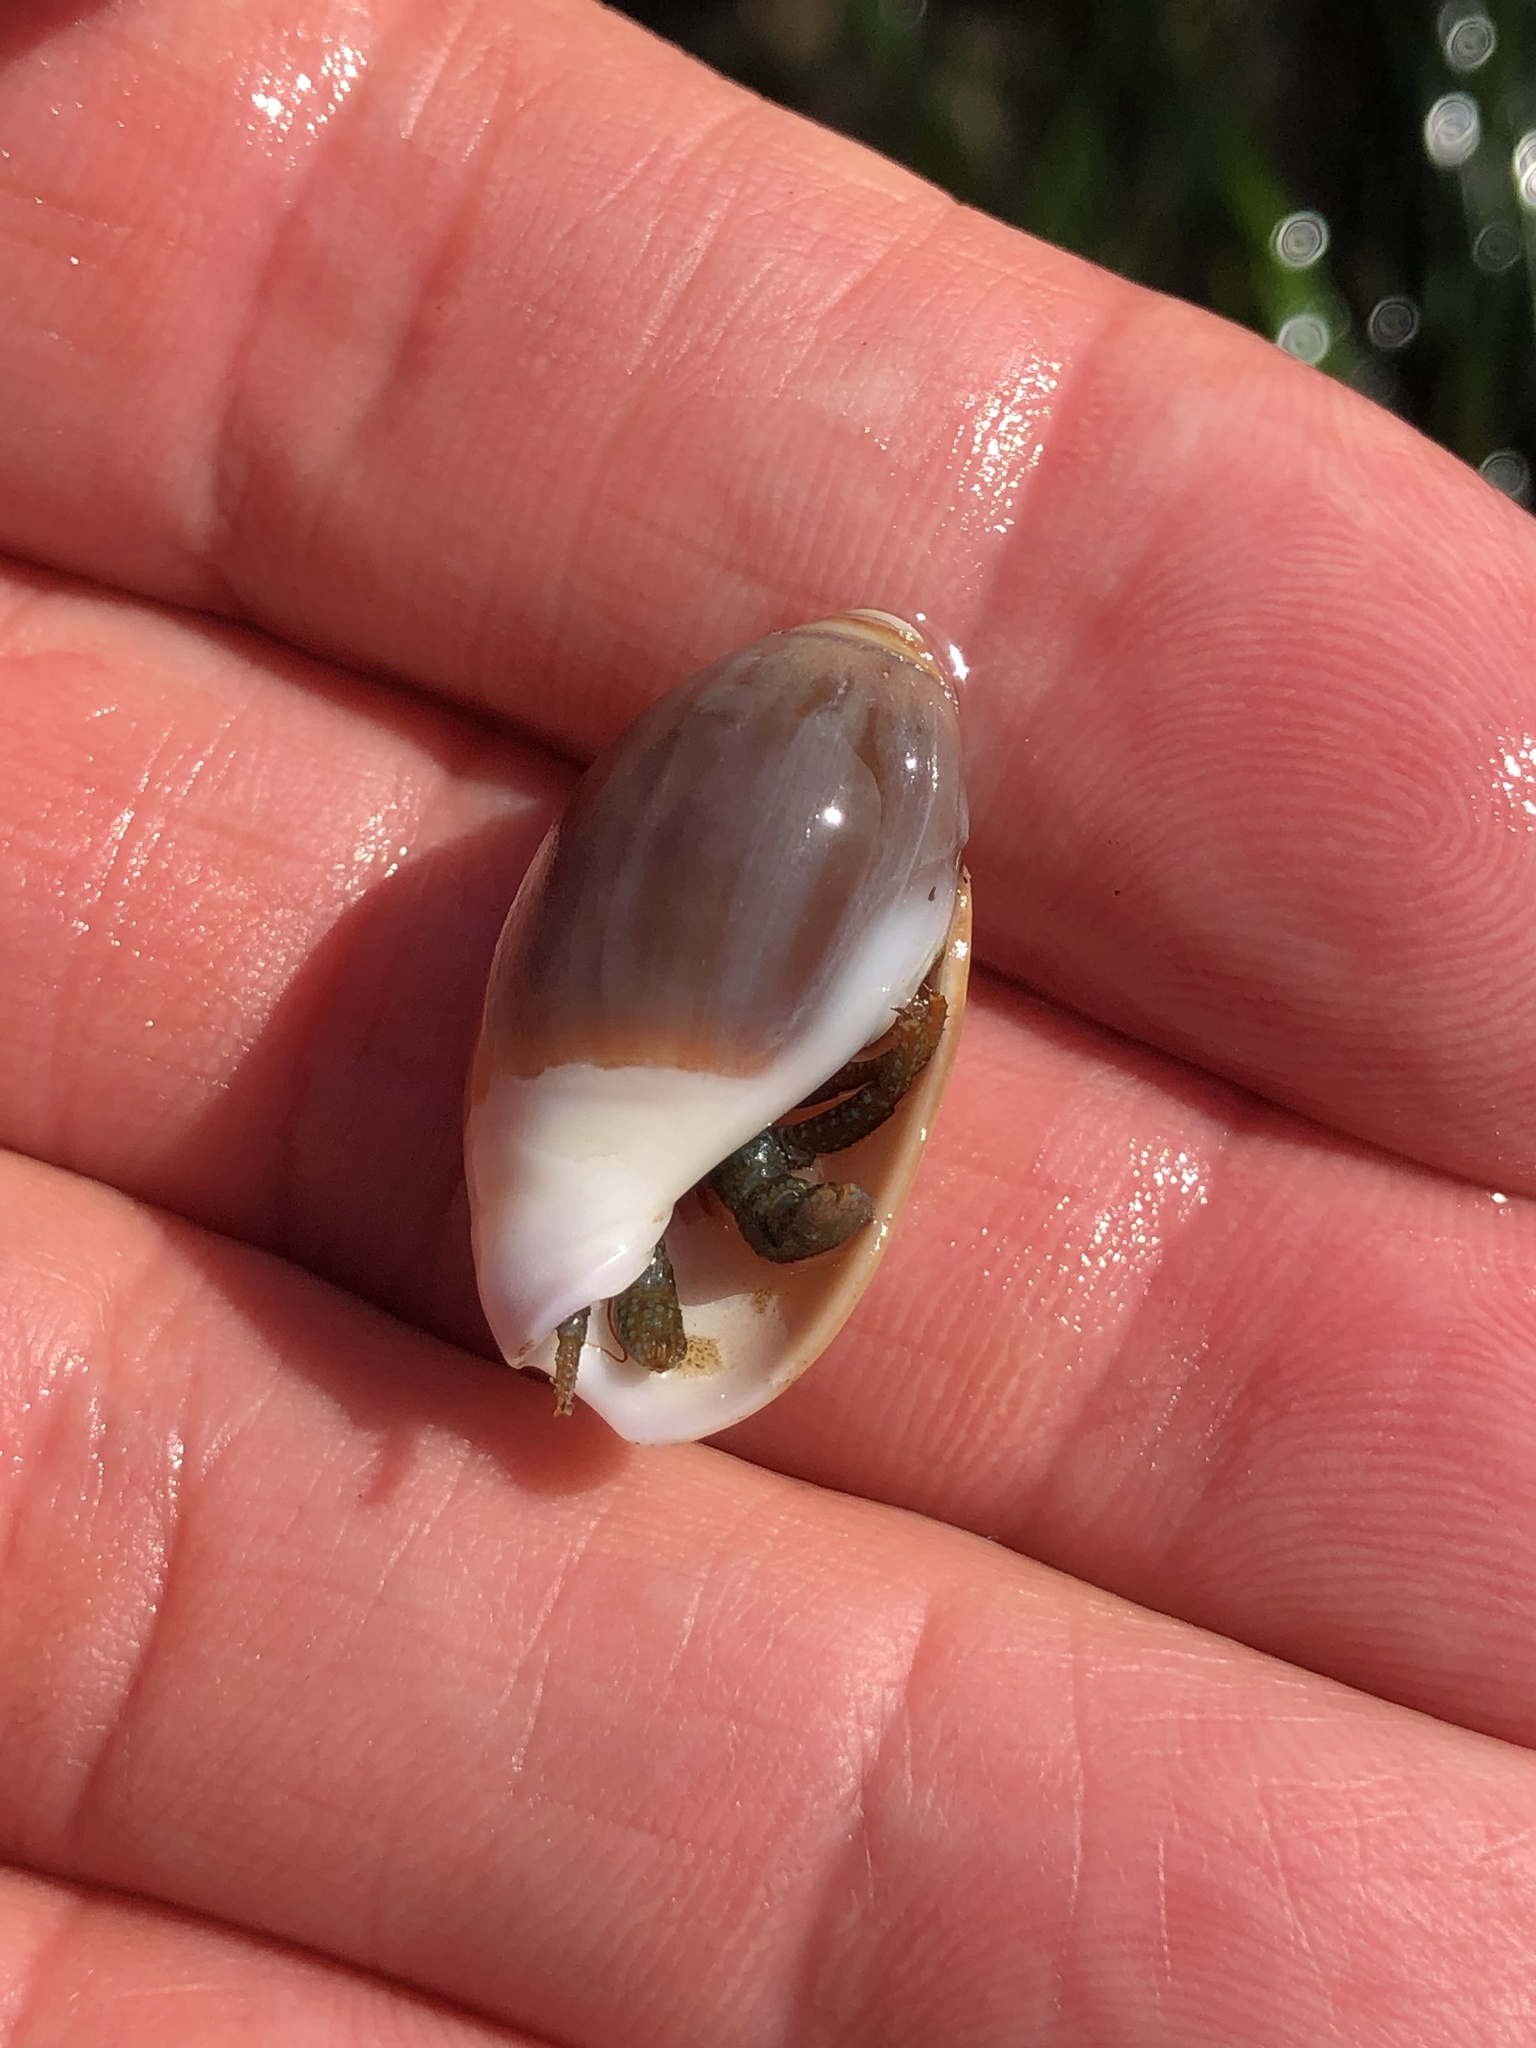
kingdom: Animalia
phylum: Mollusca
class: Gastropoda
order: Neogastropoda
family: Olividae
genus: Callianax
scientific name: Callianax biplicata
